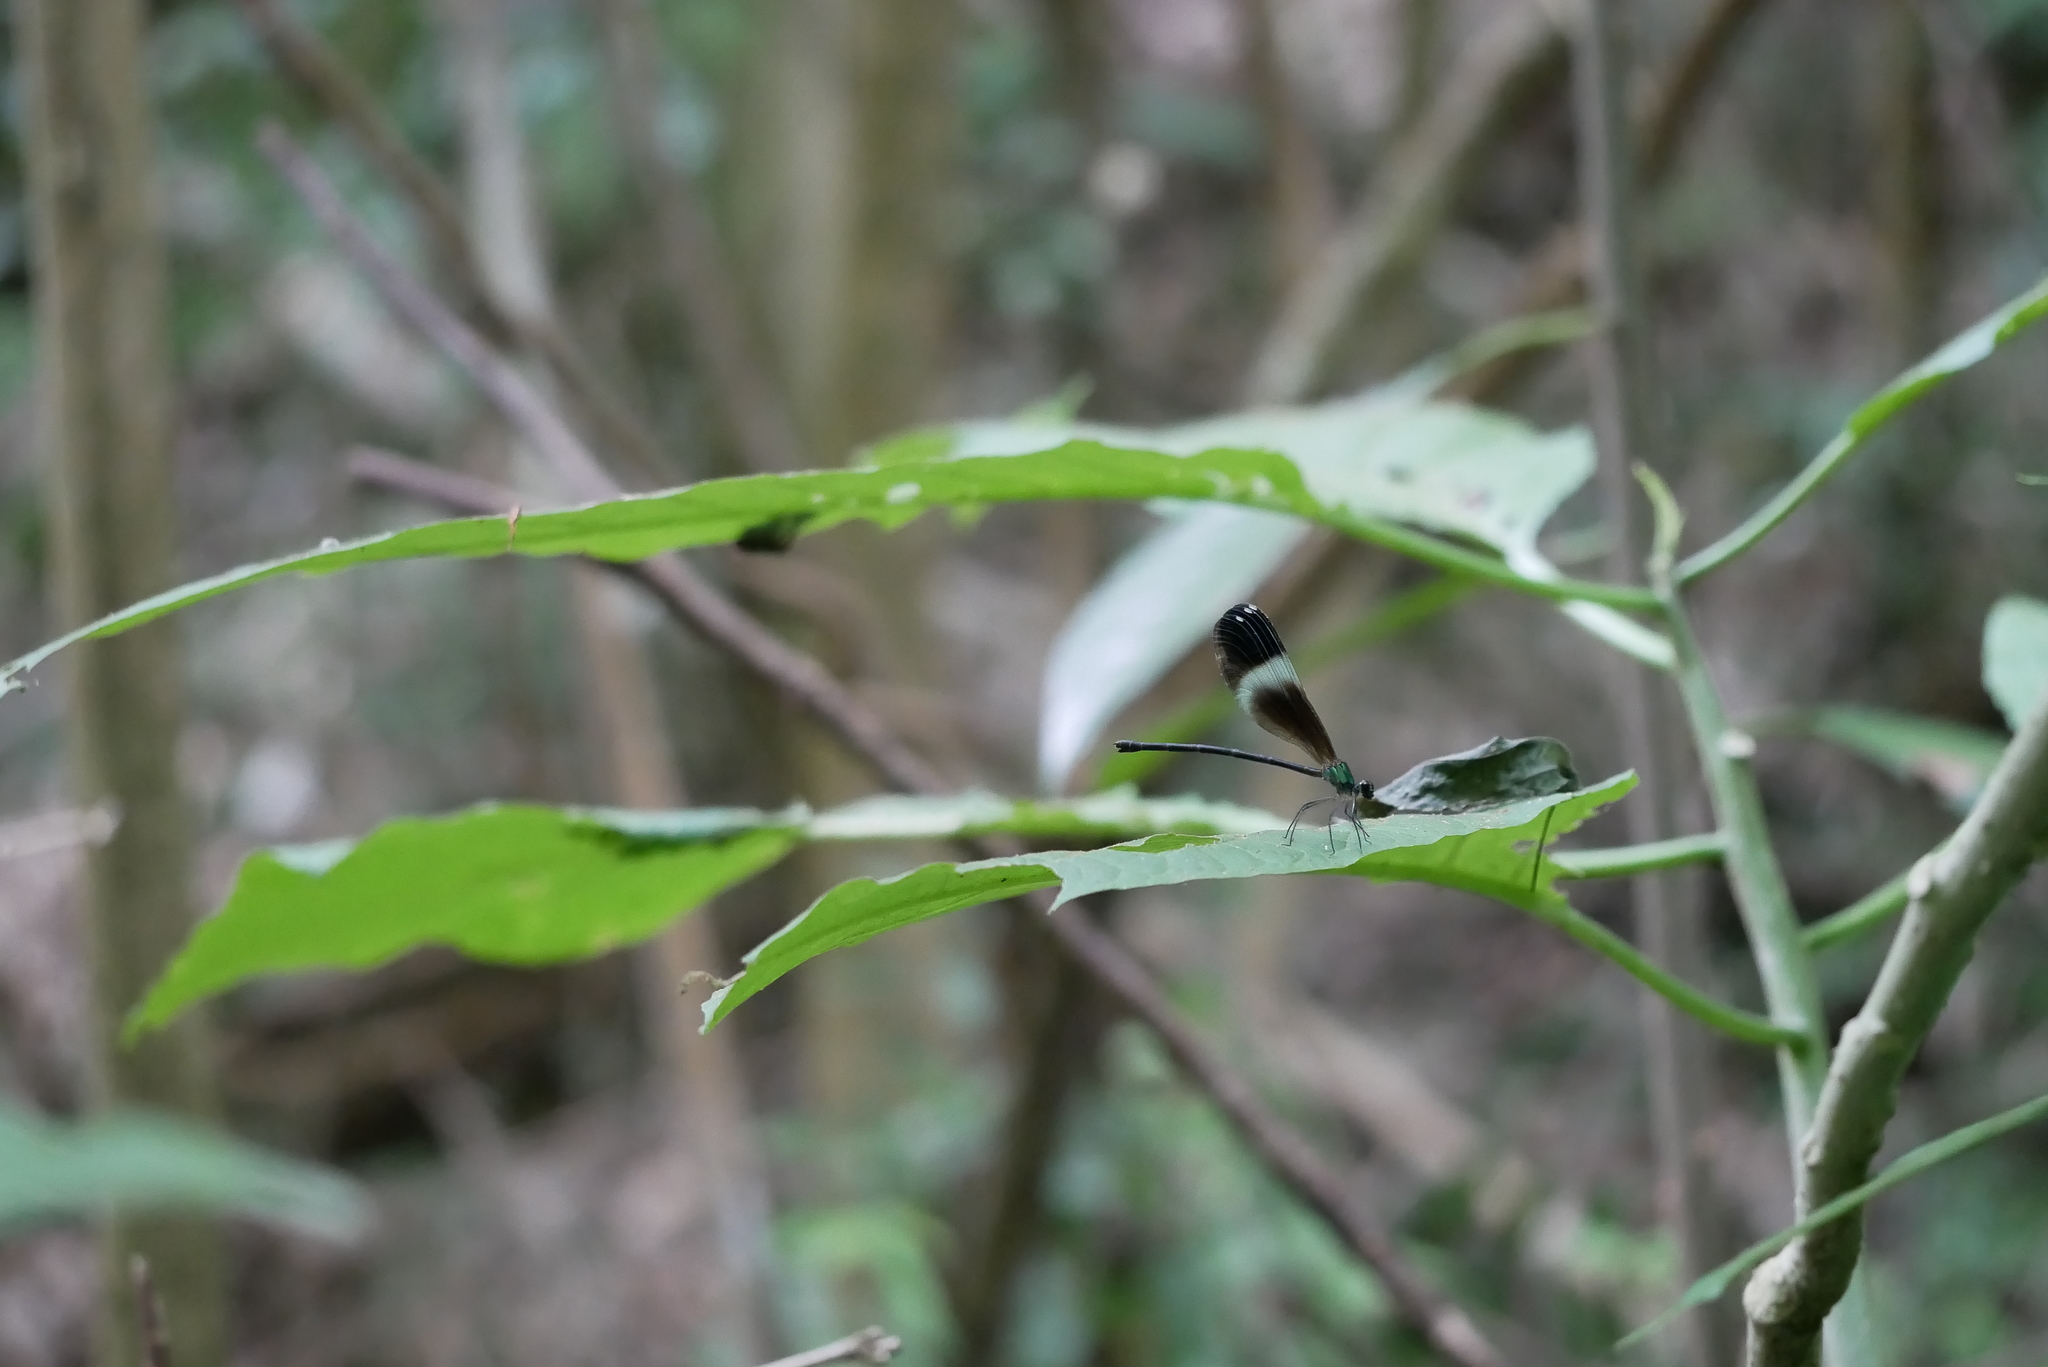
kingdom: Animalia
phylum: Arthropoda
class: Insecta
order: Odonata
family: Calopterygidae
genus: Psolodesmus
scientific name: Psolodesmus mandarinus
